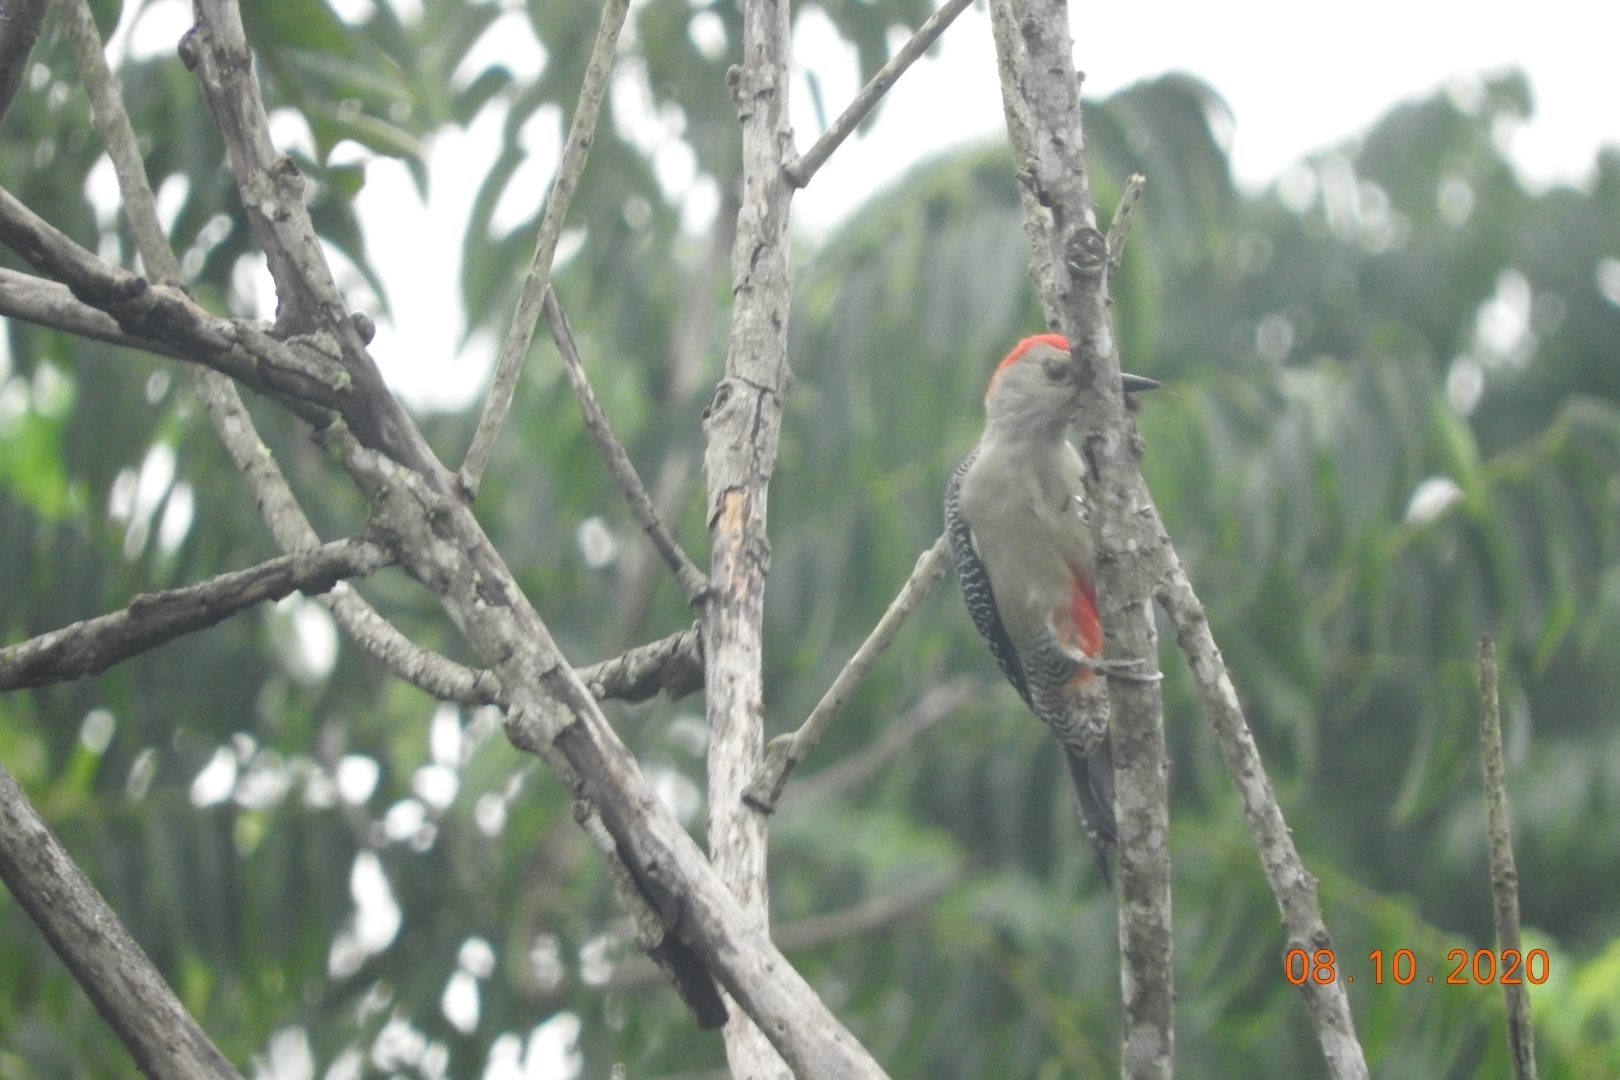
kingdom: Animalia
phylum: Chordata
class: Aves
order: Piciformes
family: Picidae
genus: Melanerpes
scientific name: Melanerpes aurifrons
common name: Golden-fronted woodpecker
